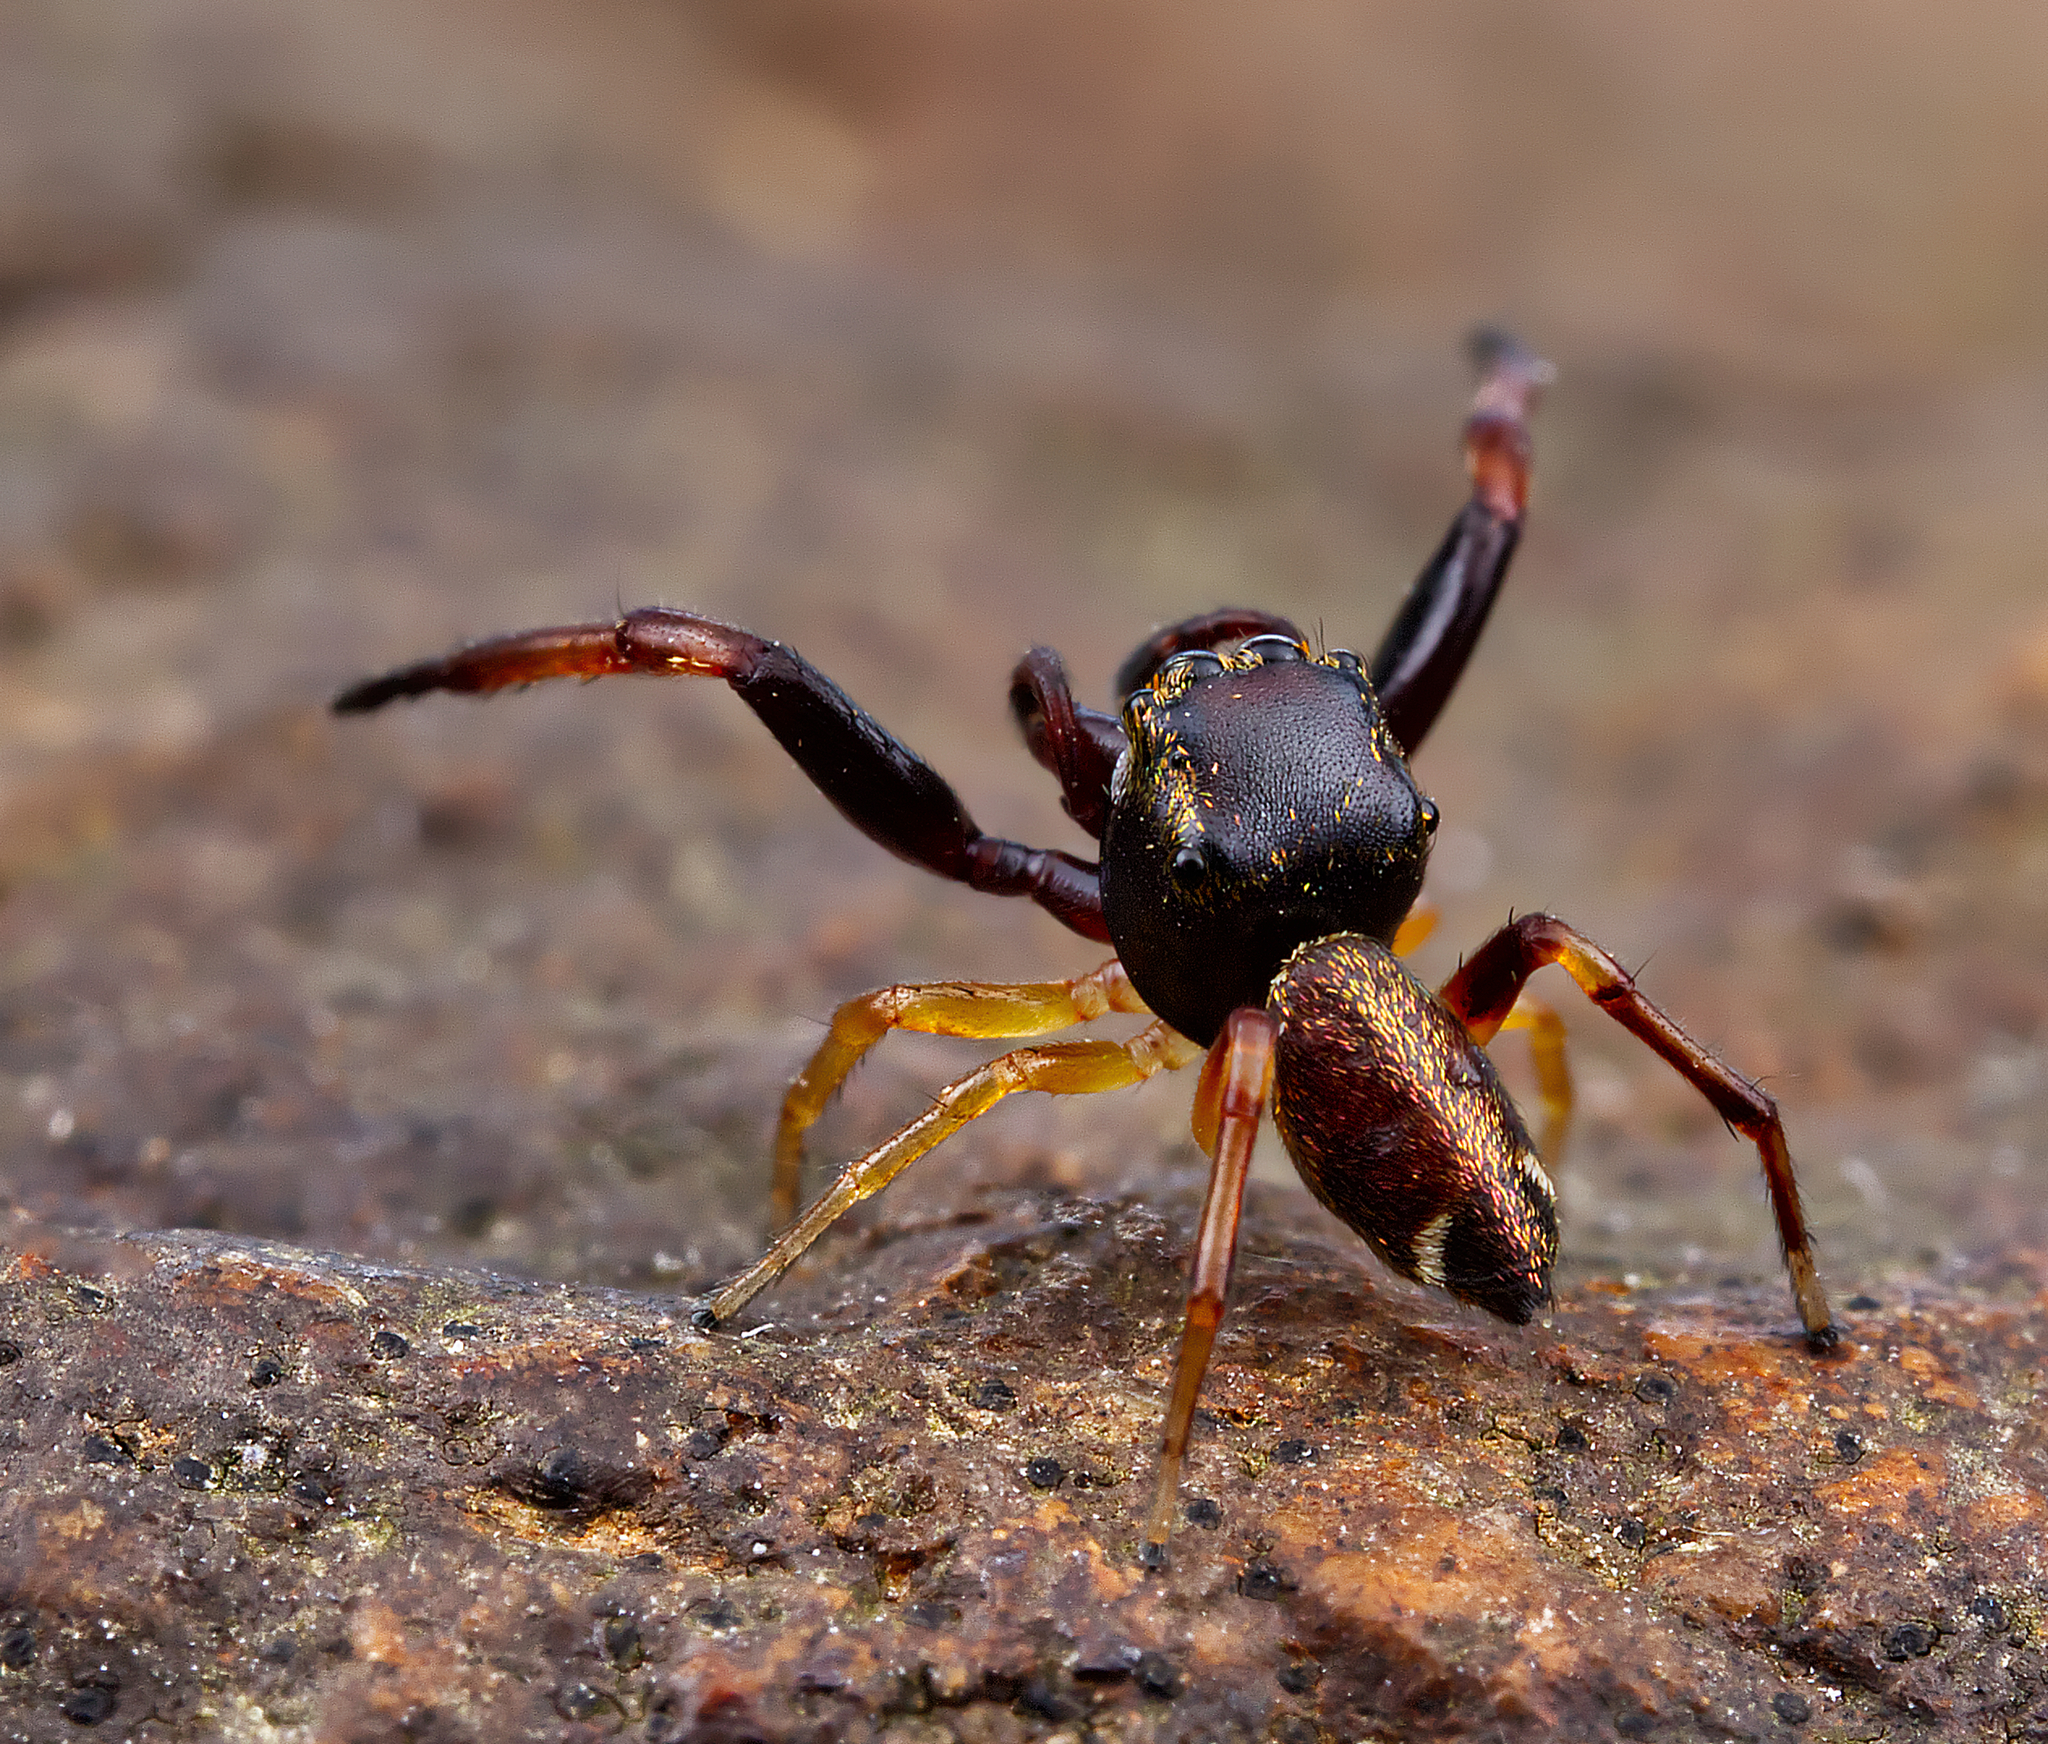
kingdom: Animalia
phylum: Arthropoda
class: Arachnida
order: Araneae
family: Salticidae
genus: Zygoballus
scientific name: Zygoballus rufipes
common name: Jumping spiders
